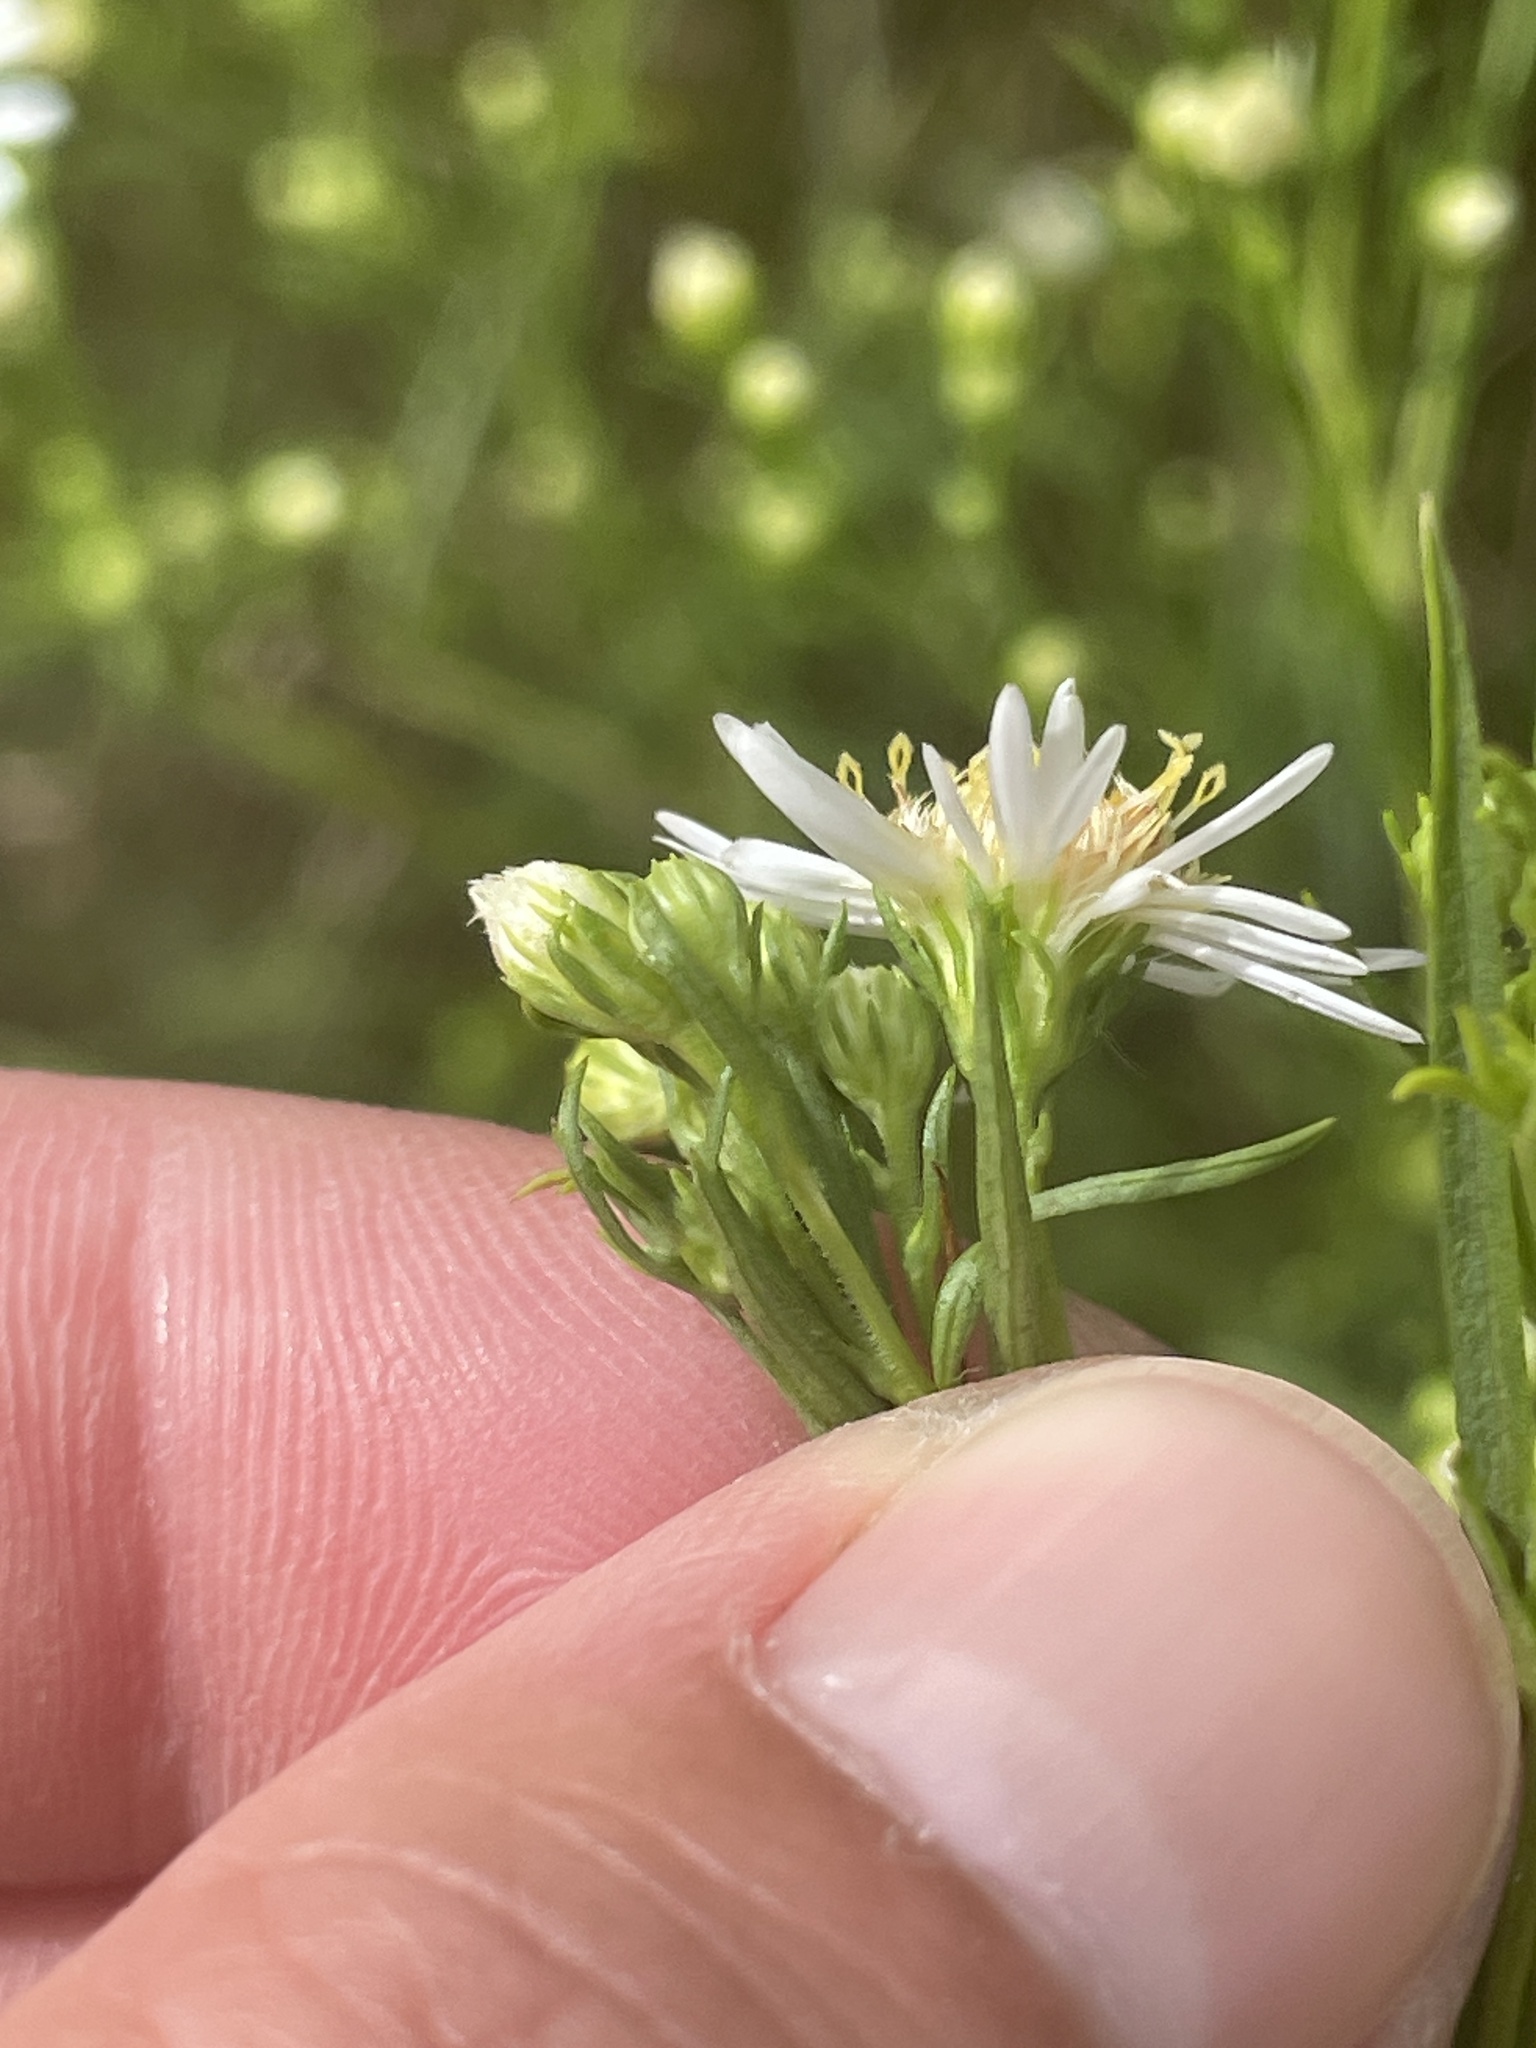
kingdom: Plantae
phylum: Tracheophyta
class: Magnoliopsida
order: Asterales
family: Asteraceae
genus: Symphyotrichum
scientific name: Symphyotrichum lanceolatum
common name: Panicled aster
